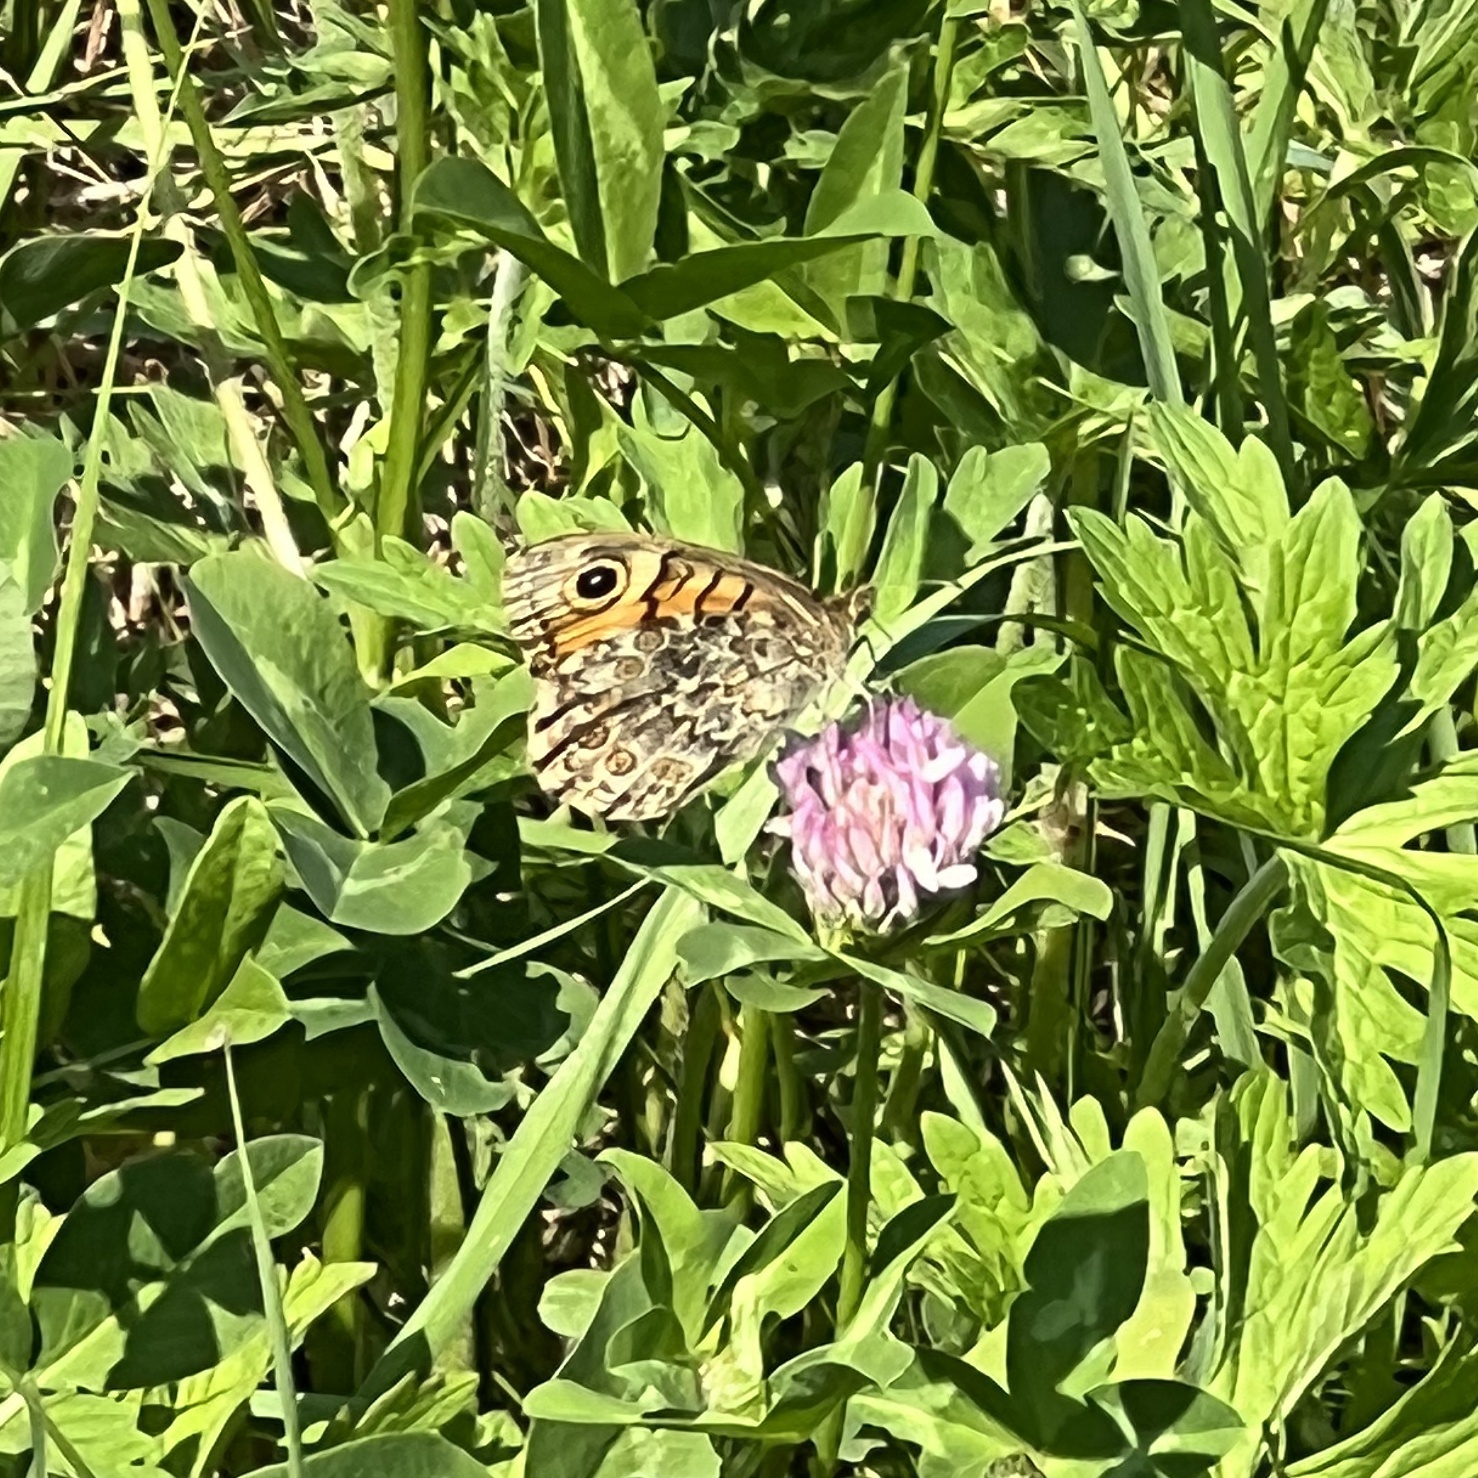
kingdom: Animalia
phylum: Arthropoda
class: Insecta
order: Lepidoptera
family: Nymphalidae
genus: Pararge
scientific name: Pararge Lasiommata megera
